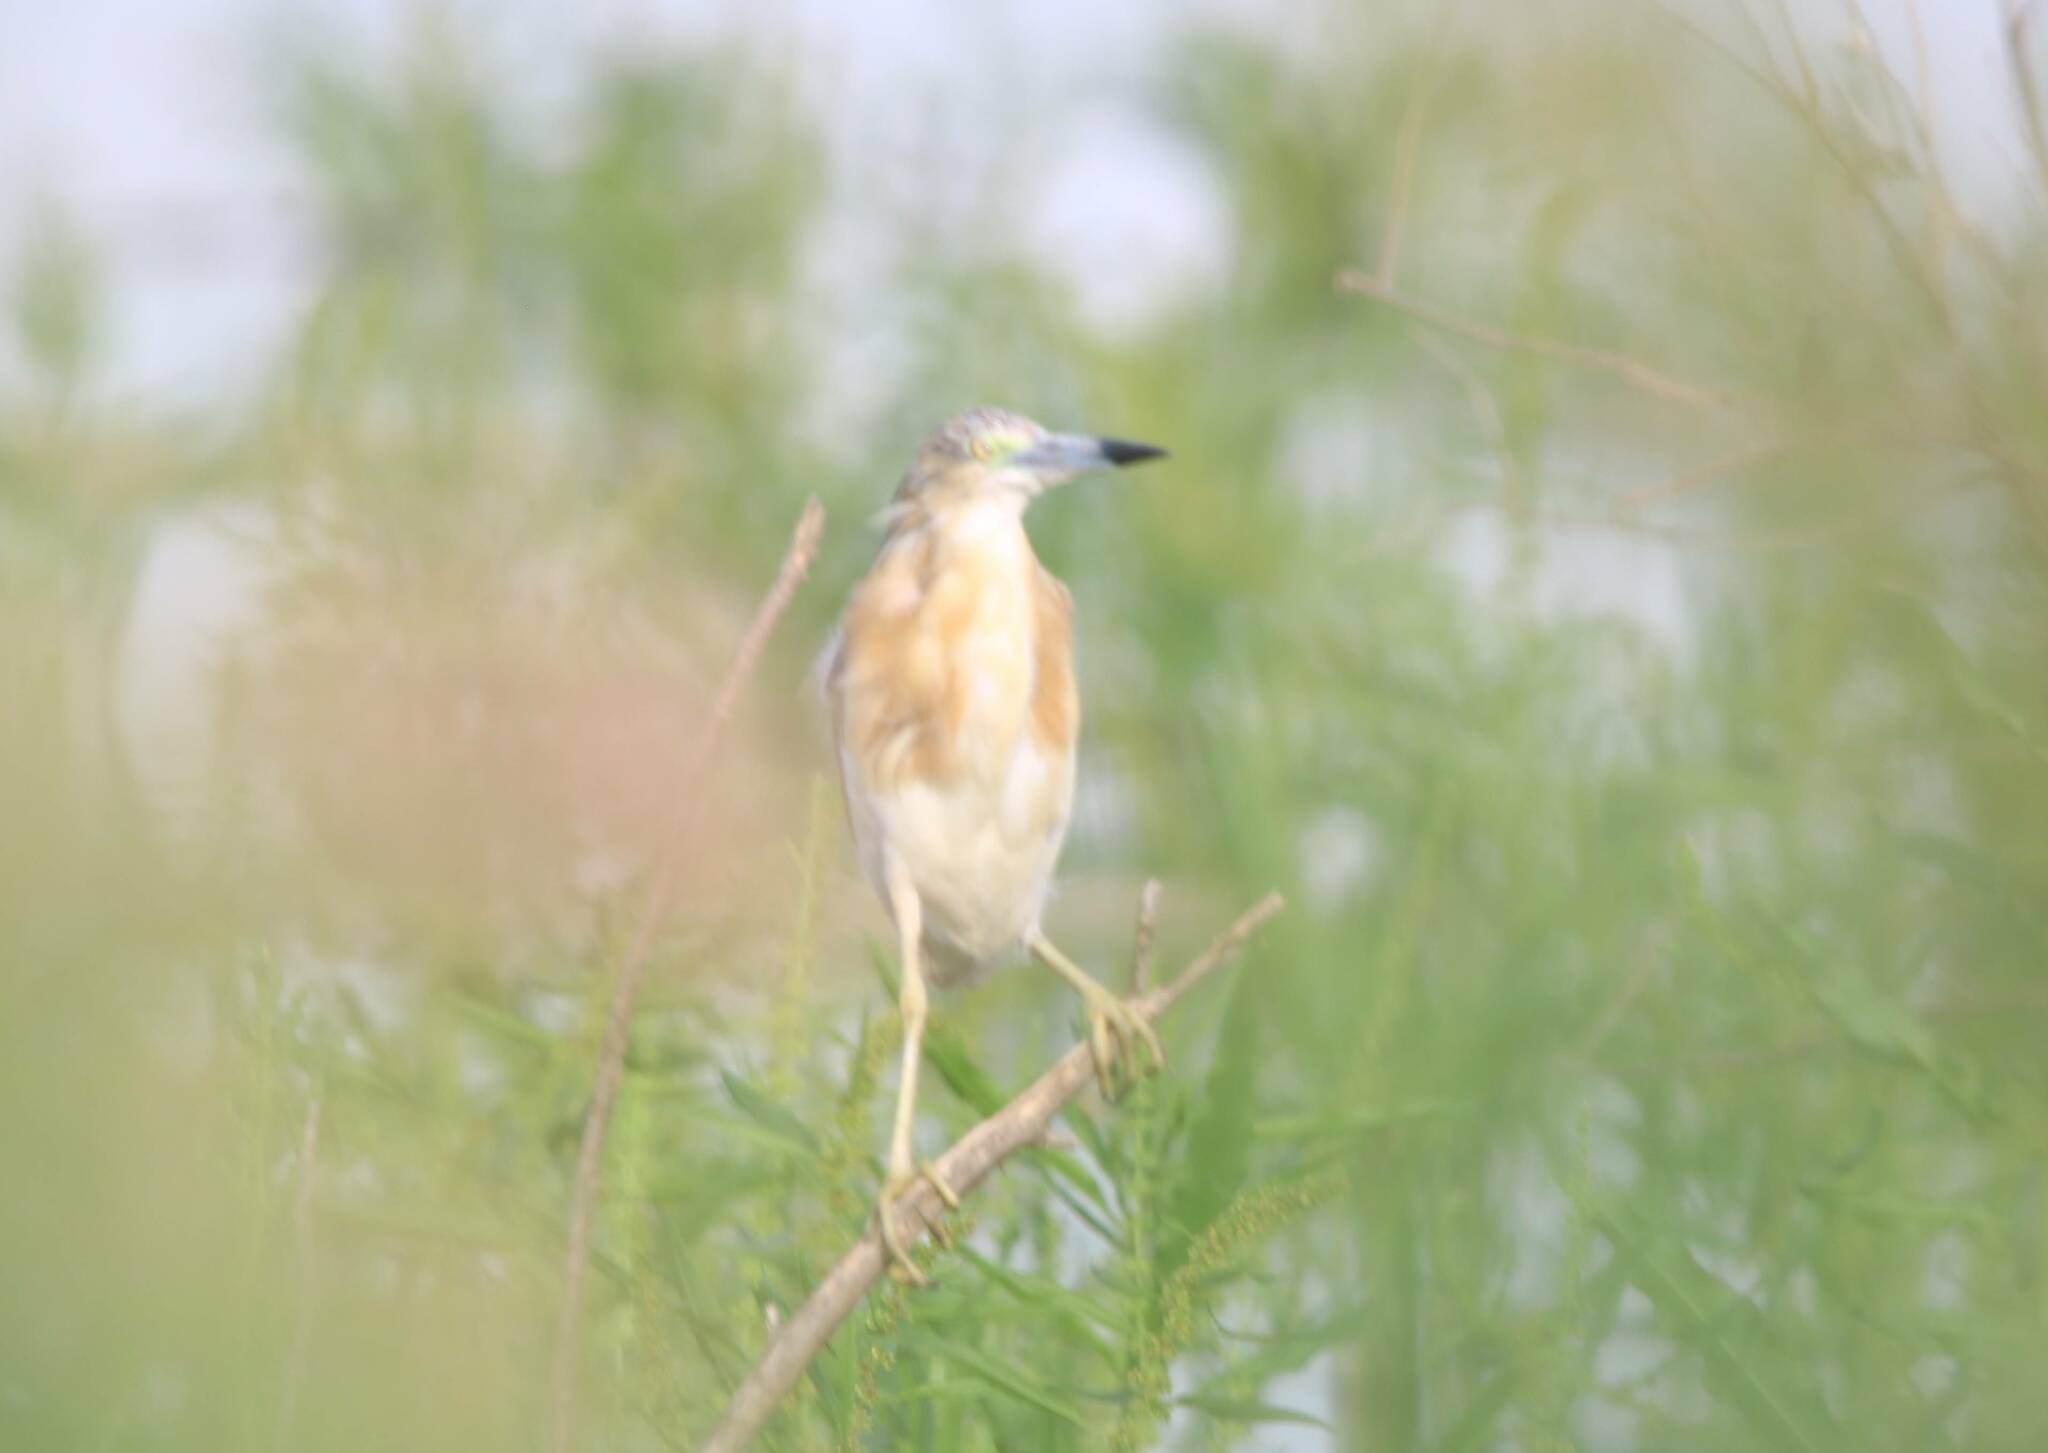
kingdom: Animalia
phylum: Chordata
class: Aves
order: Pelecaniformes
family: Ardeidae
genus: Ardeola
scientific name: Ardeola ralloides
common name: Squacco heron
